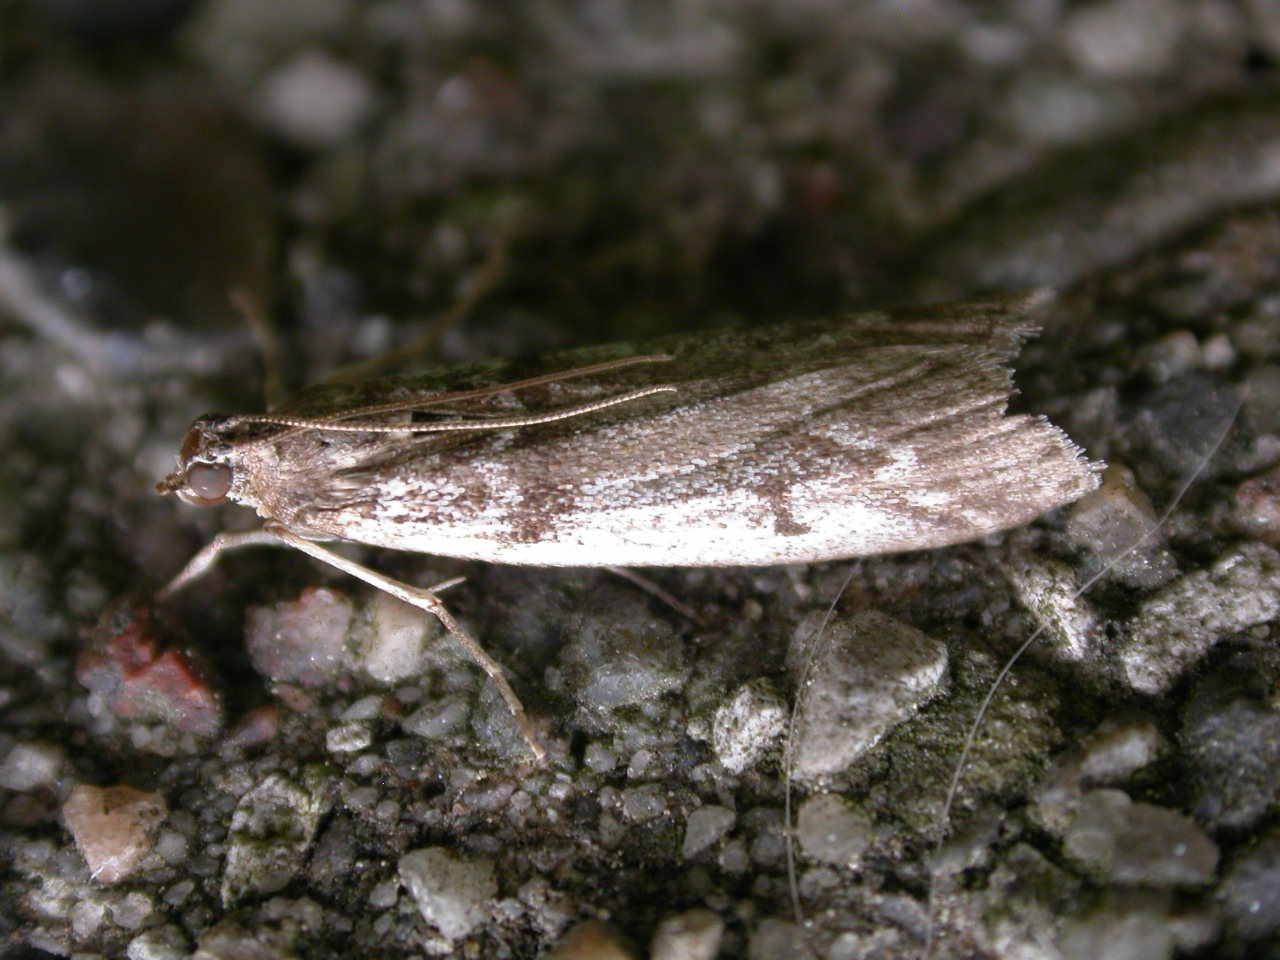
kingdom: Animalia
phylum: Arthropoda
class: Insecta
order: Lepidoptera
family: Pyralidae
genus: Zophodia
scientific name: Zophodia convolutella
